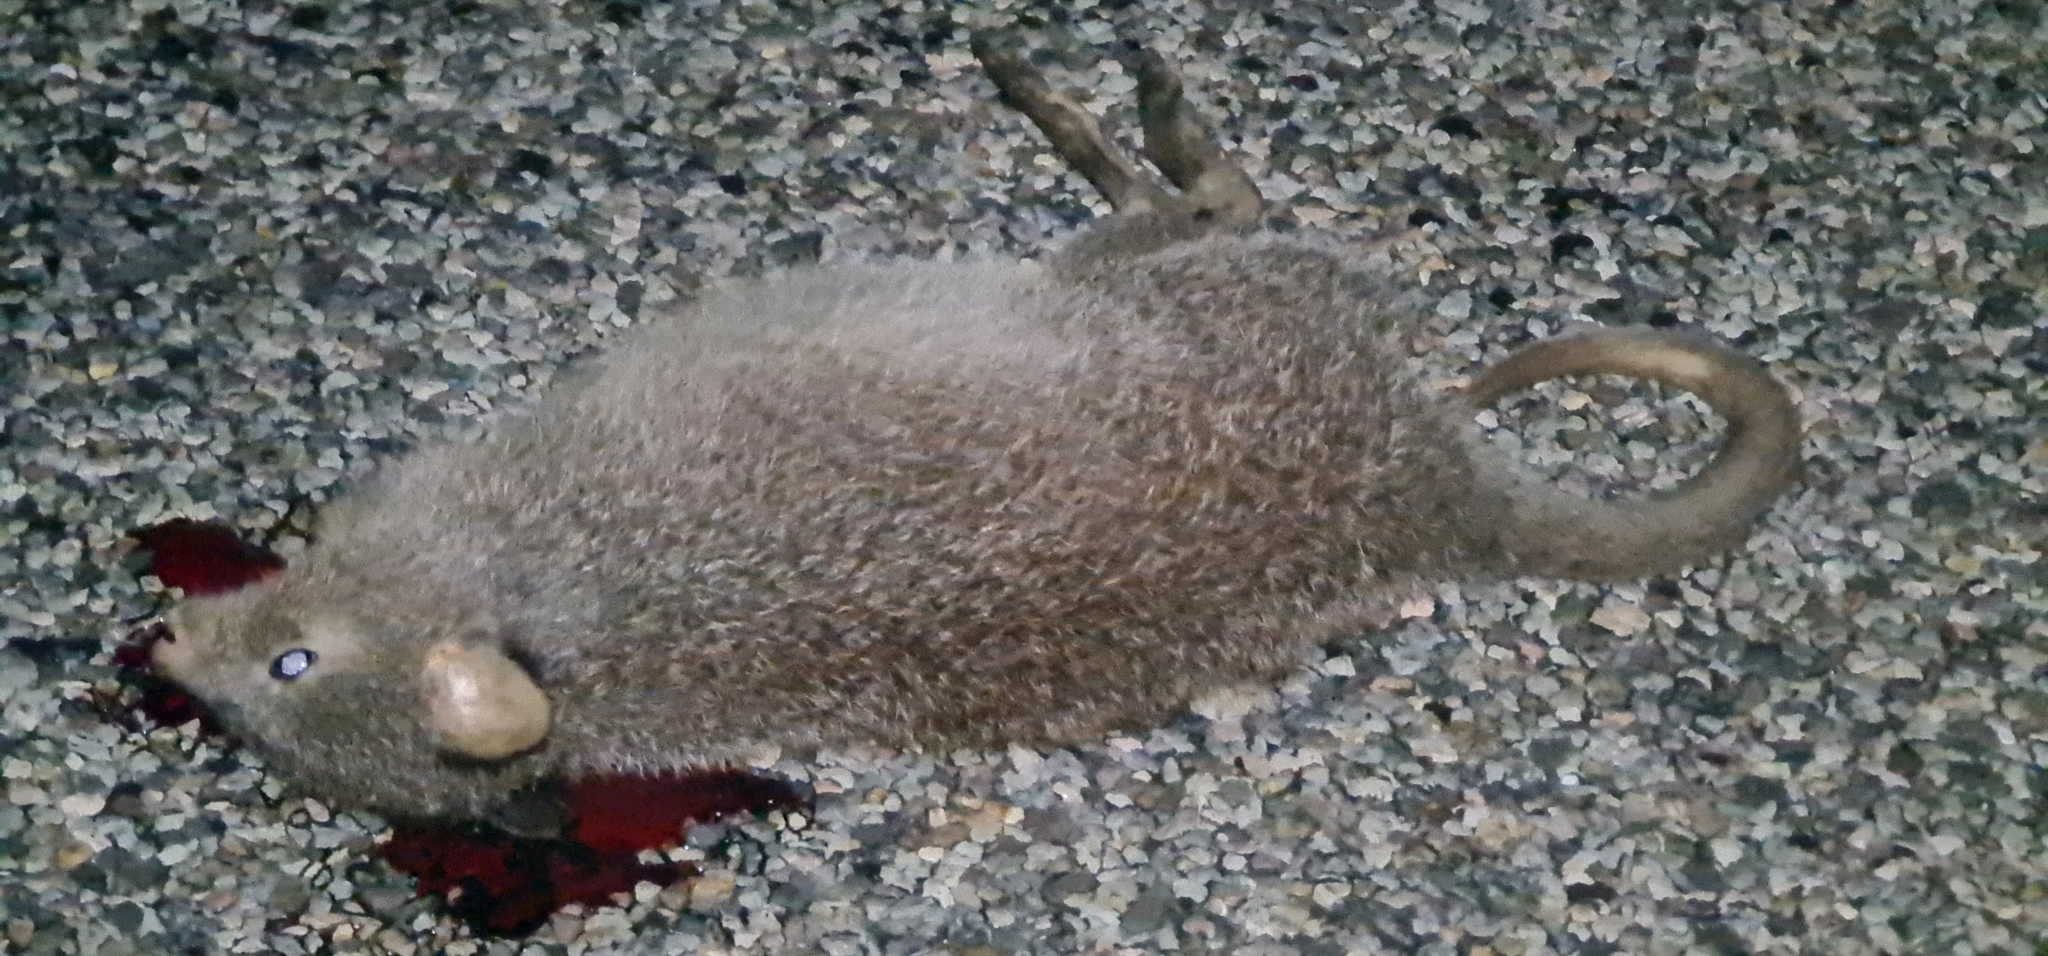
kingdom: Animalia
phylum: Chordata
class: Mammalia
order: Diprotodontia
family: Potoroidae
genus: Aepyprymnus
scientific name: Aepyprymnus rufescens
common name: Rufous rat-kangaroo
